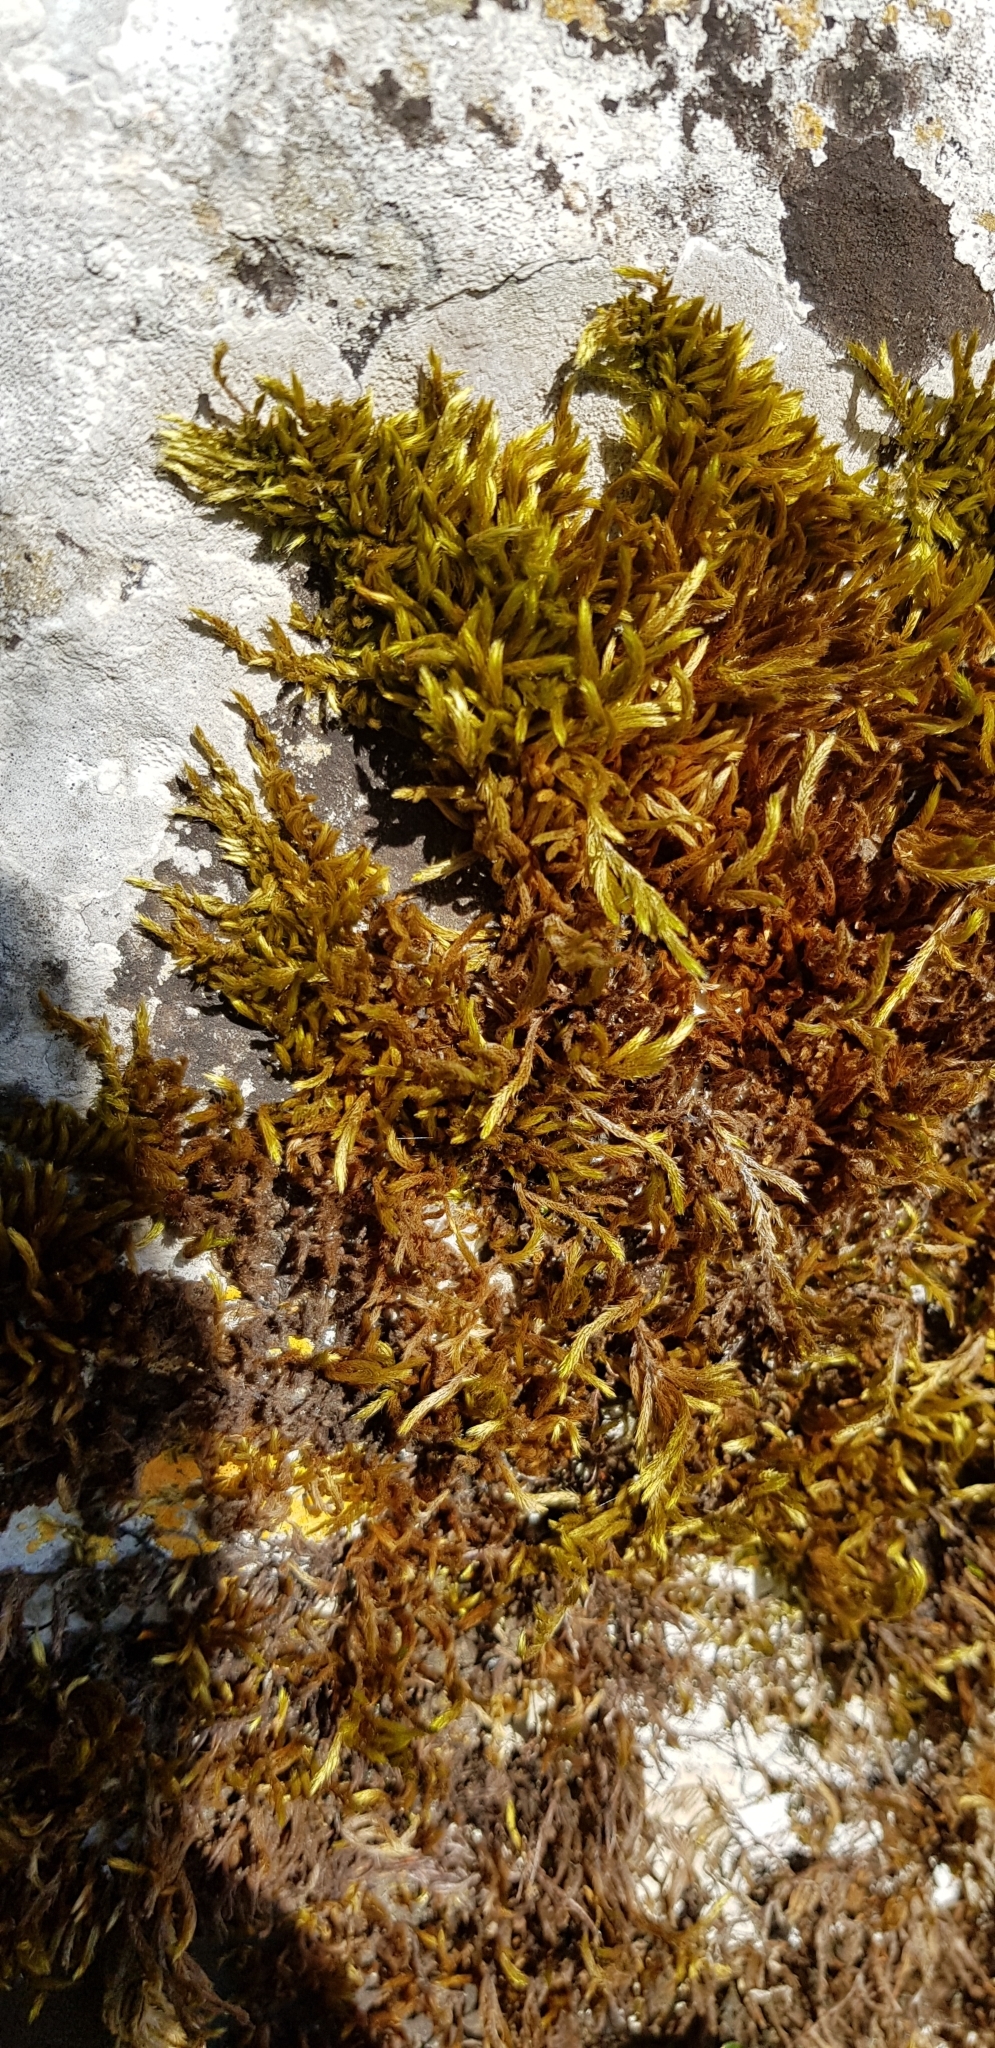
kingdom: Plantae
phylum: Bryophyta
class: Bryopsida
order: Hypnales
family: Brachytheciaceae
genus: Homalothecium
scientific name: Homalothecium lutescens
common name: Yellow feather-moss
